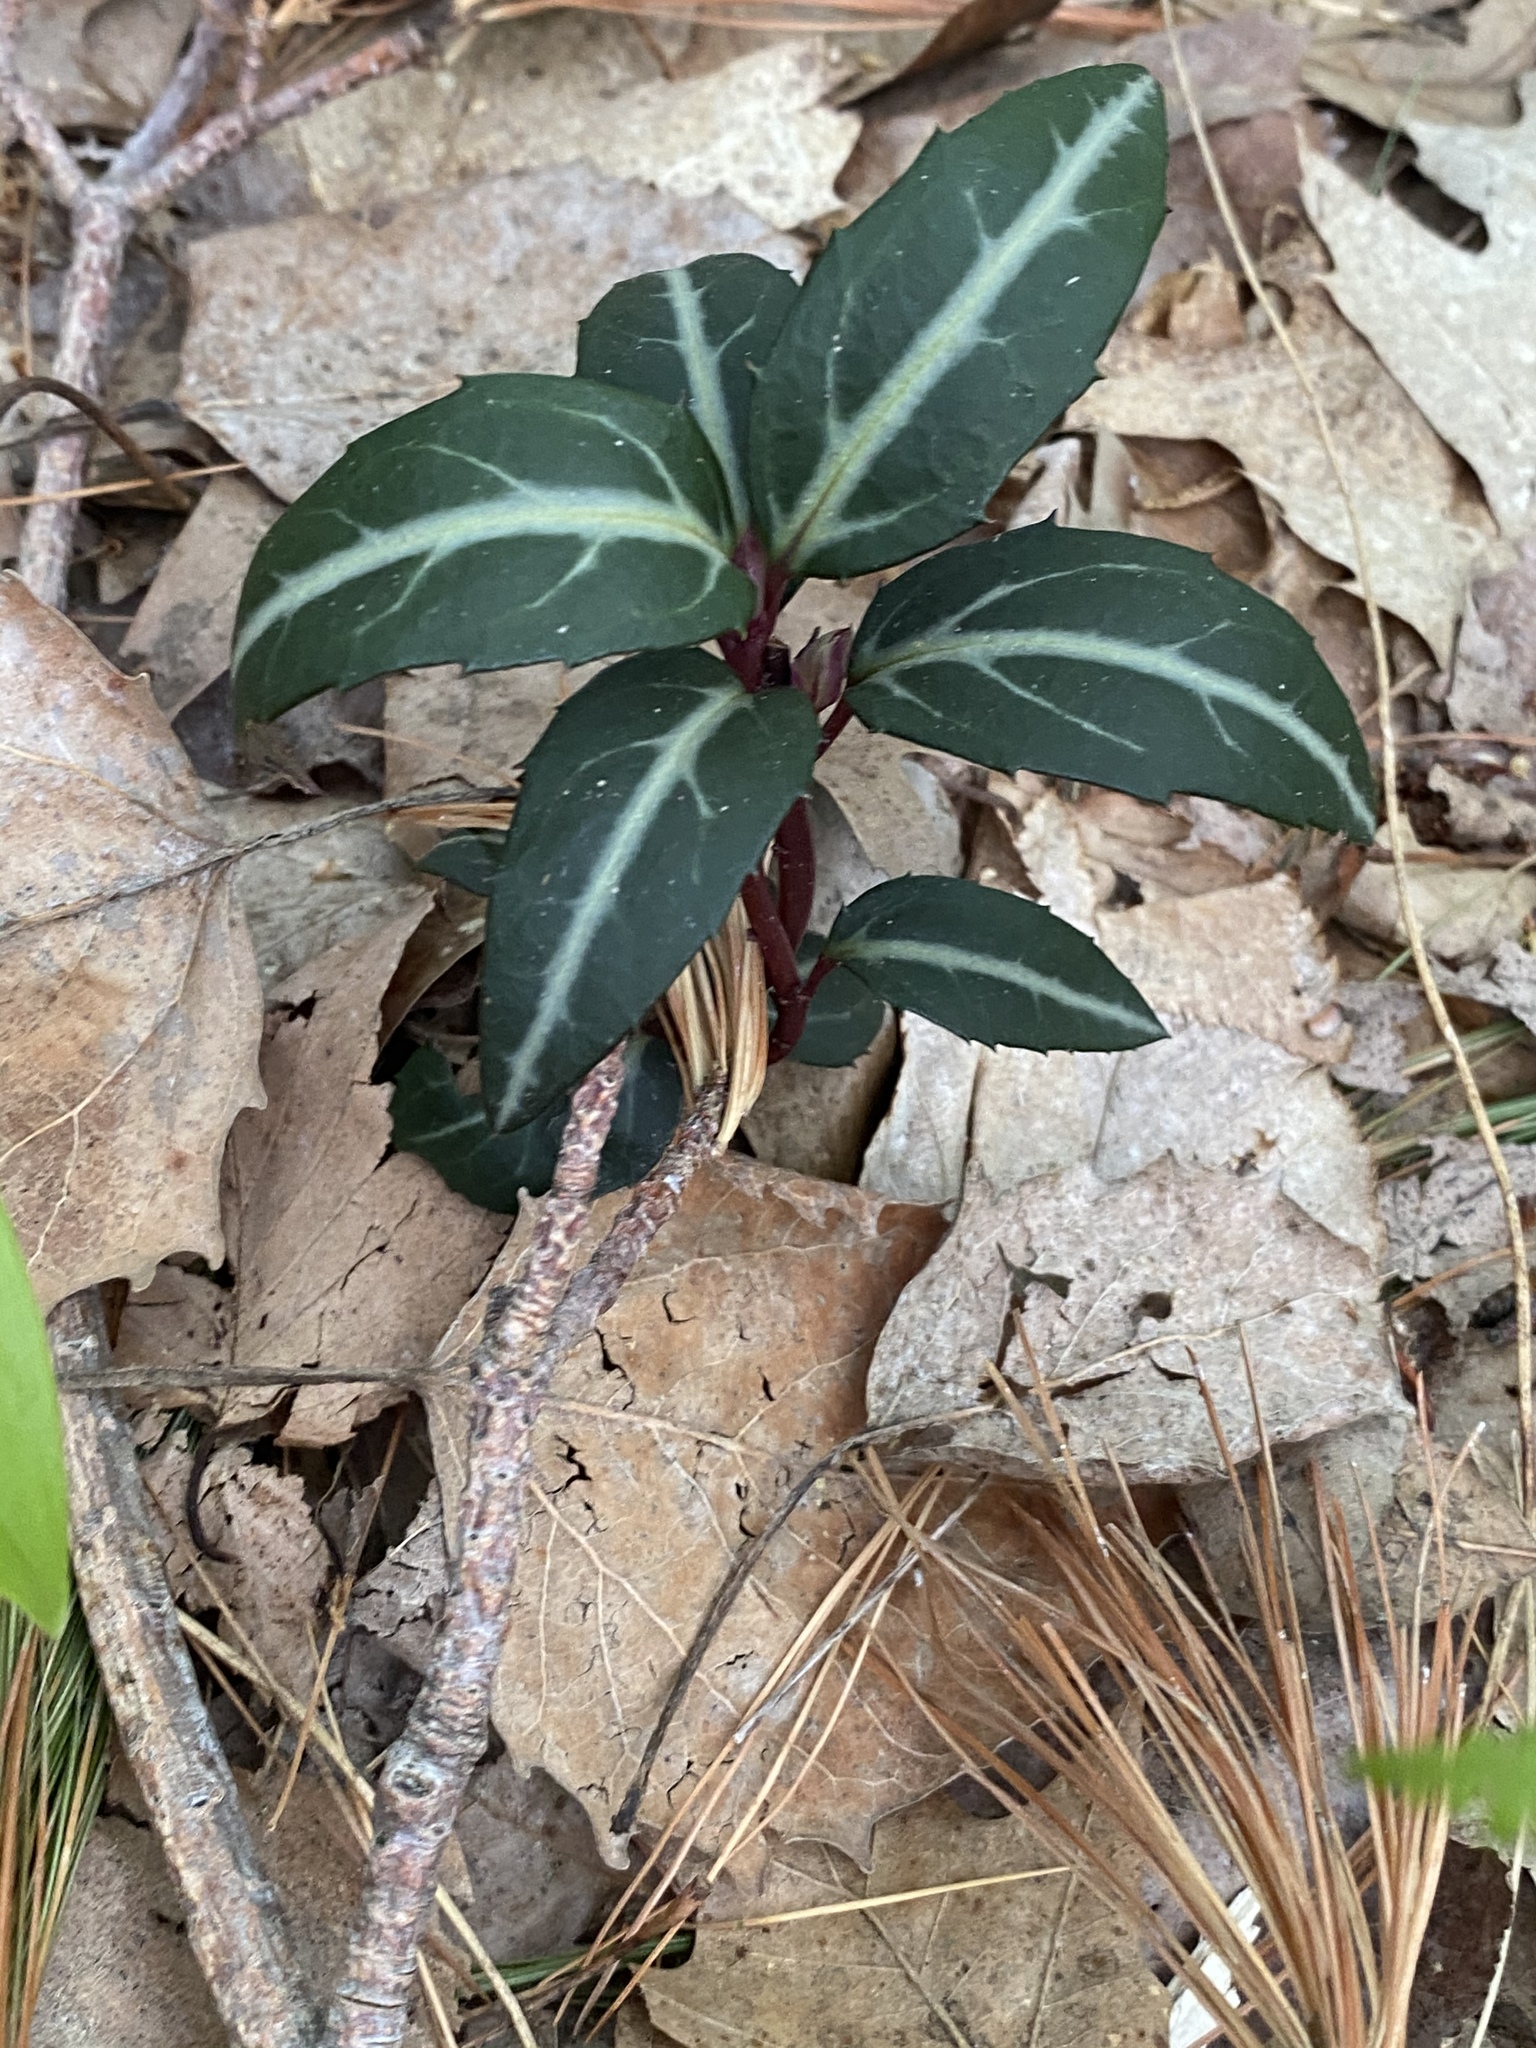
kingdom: Plantae
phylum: Tracheophyta
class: Magnoliopsida
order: Ericales
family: Ericaceae
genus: Chimaphila
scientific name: Chimaphila maculata
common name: Spotted pipsissewa
